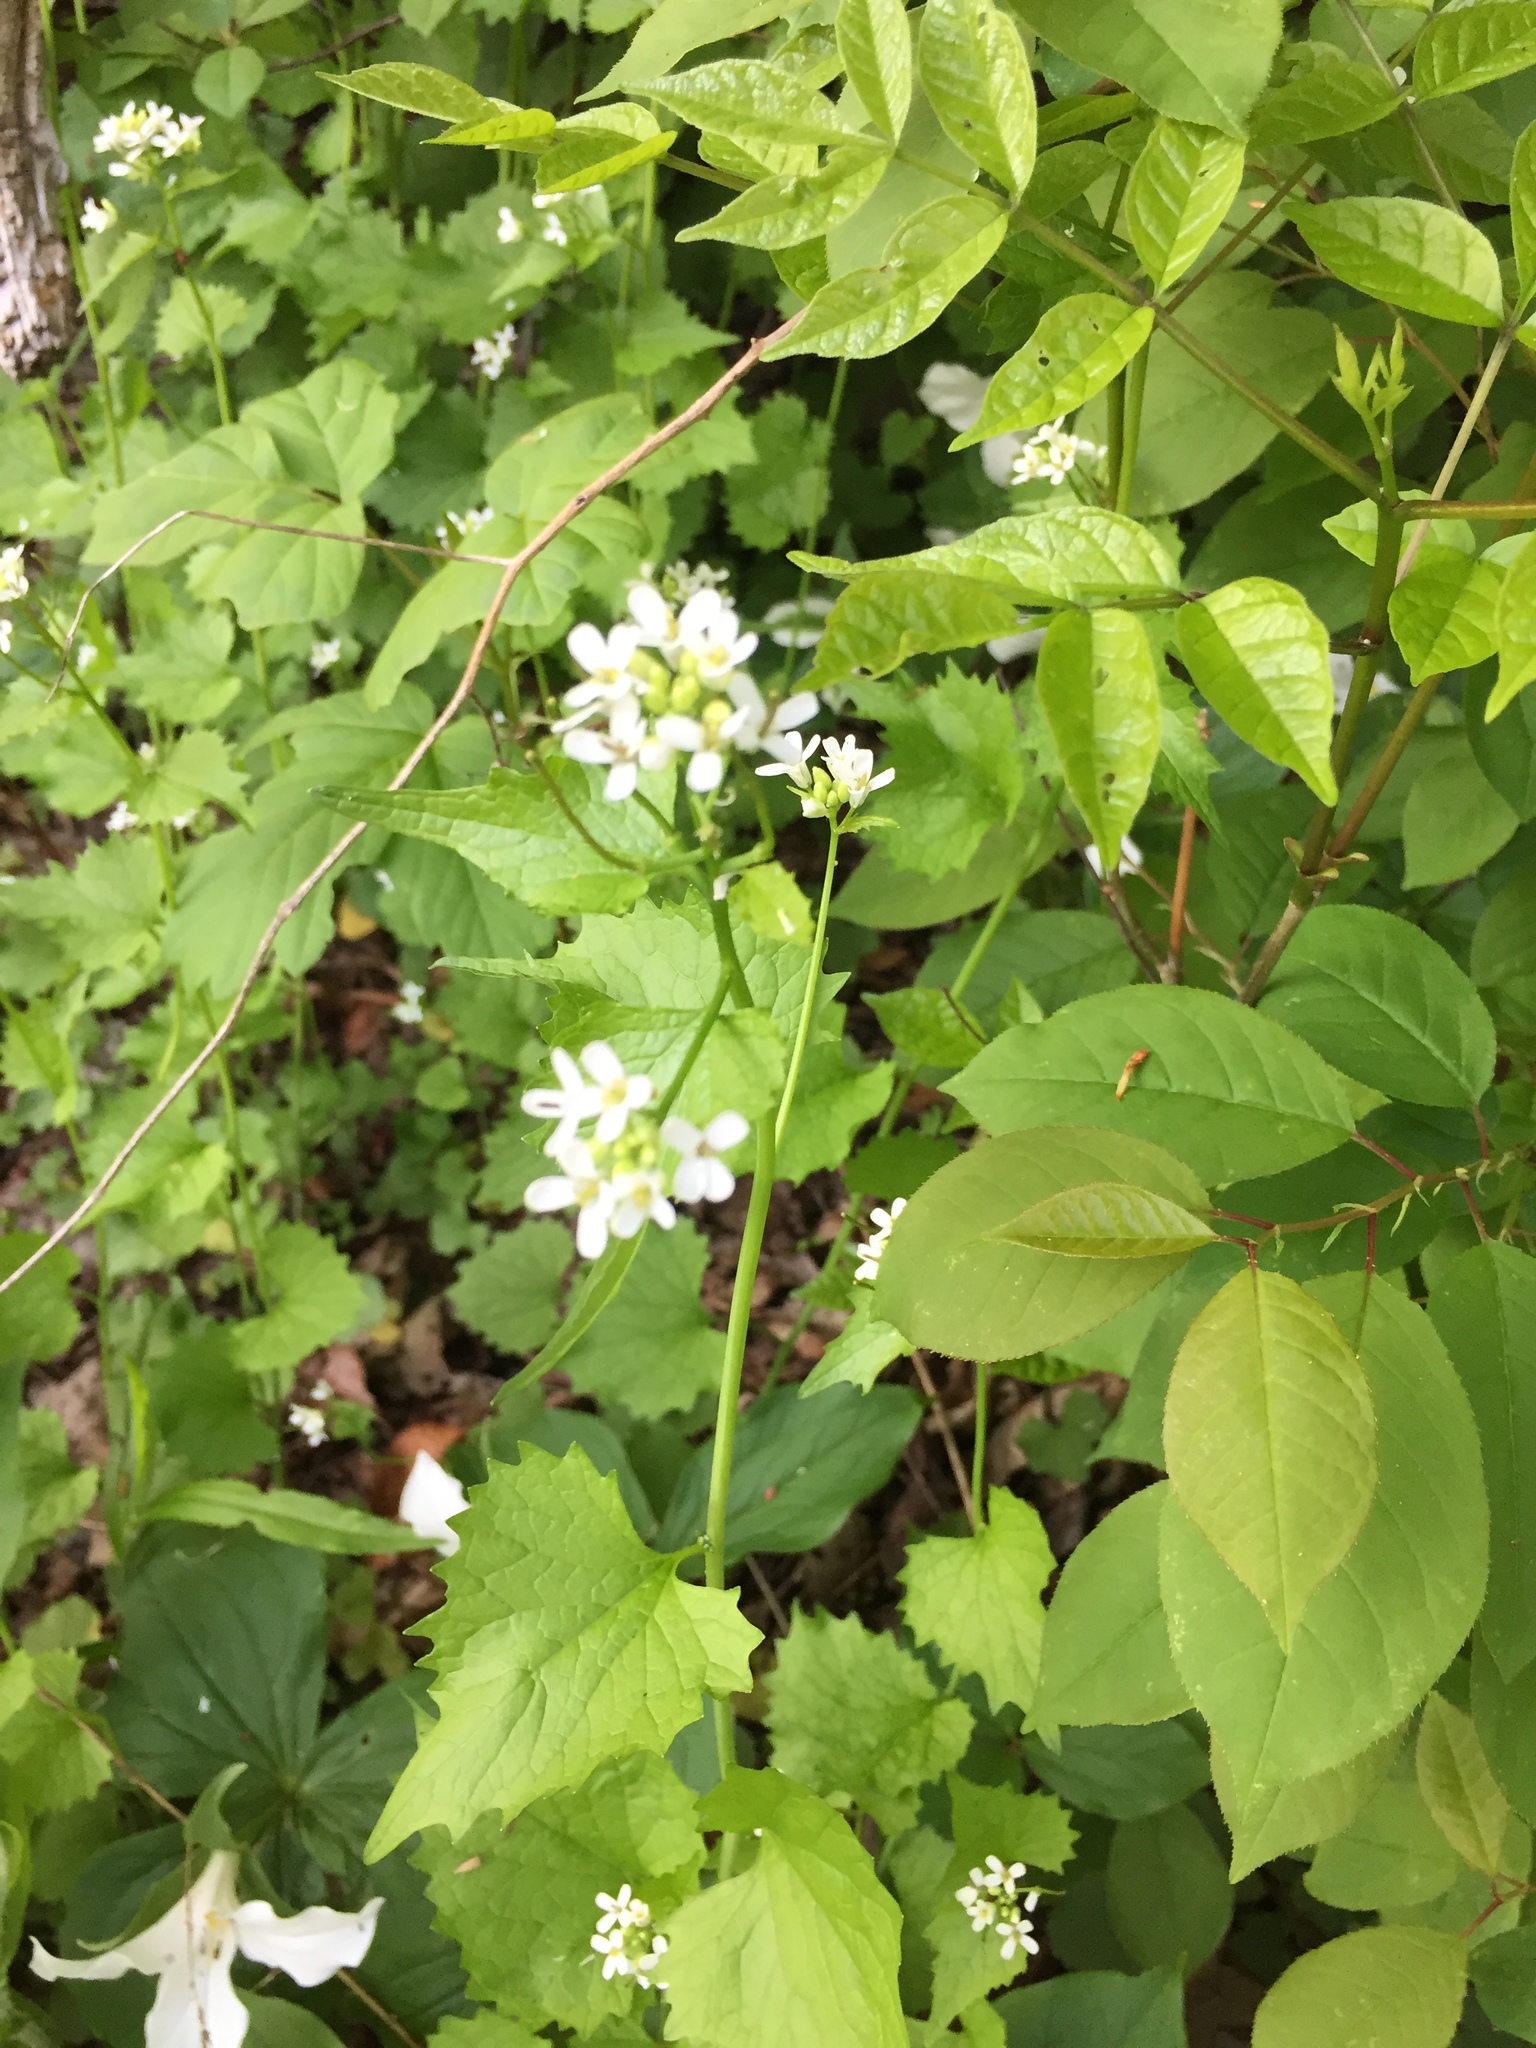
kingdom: Plantae
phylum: Tracheophyta
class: Magnoliopsida
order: Brassicales
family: Brassicaceae
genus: Alliaria
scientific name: Alliaria petiolata
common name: Garlic mustard
